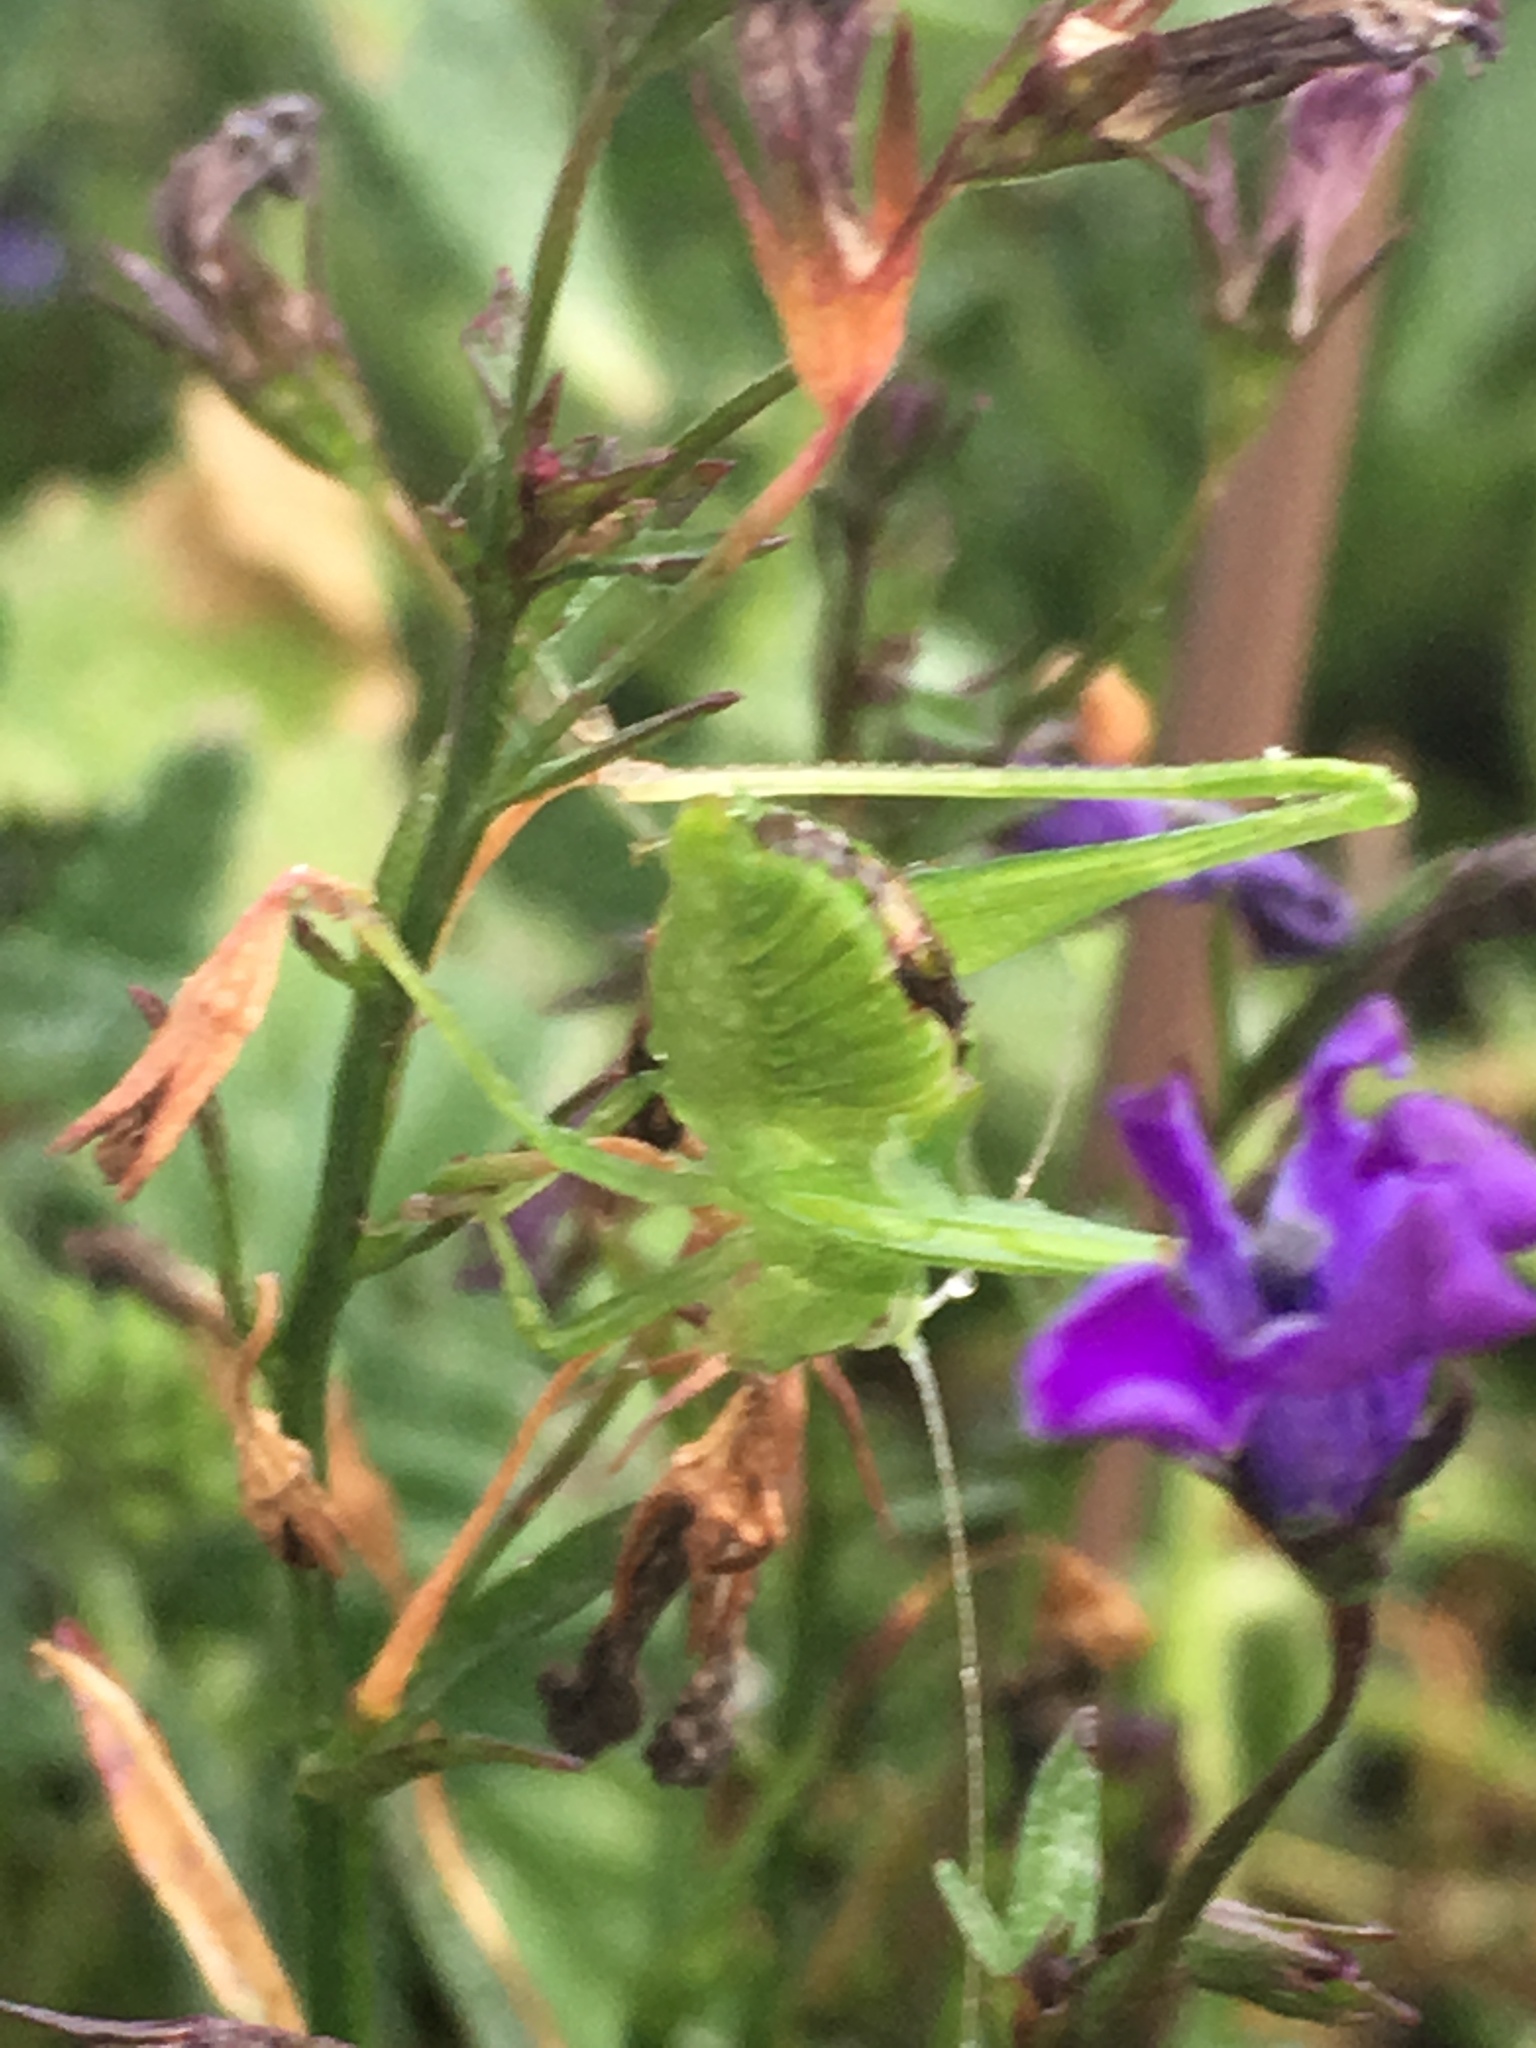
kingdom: Animalia
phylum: Arthropoda
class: Insecta
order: Orthoptera
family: Tettigoniidae
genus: Montezumina
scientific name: Montezumina modesta
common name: Modest katydid
